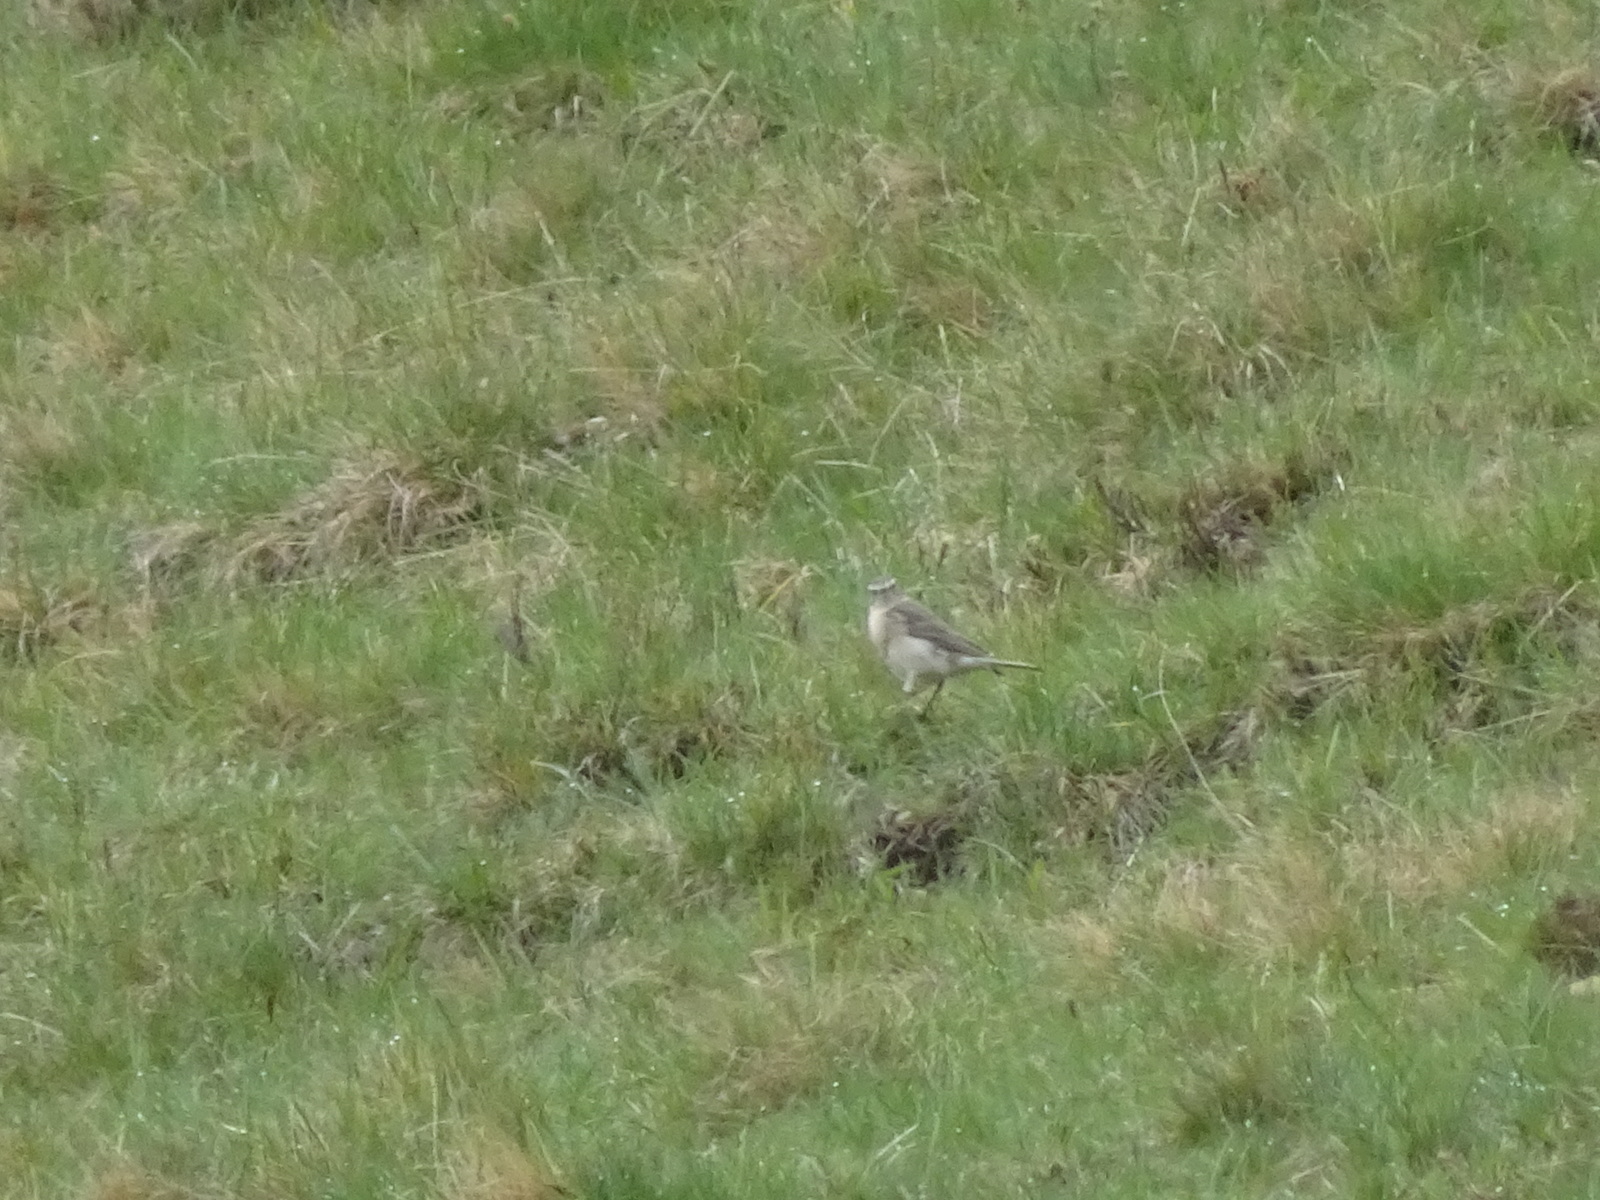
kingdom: Animalia
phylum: Chordata
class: Aves
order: Passeriformes
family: Motacillidae
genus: Anthus
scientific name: Anthus spinoletta
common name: Water pipit
